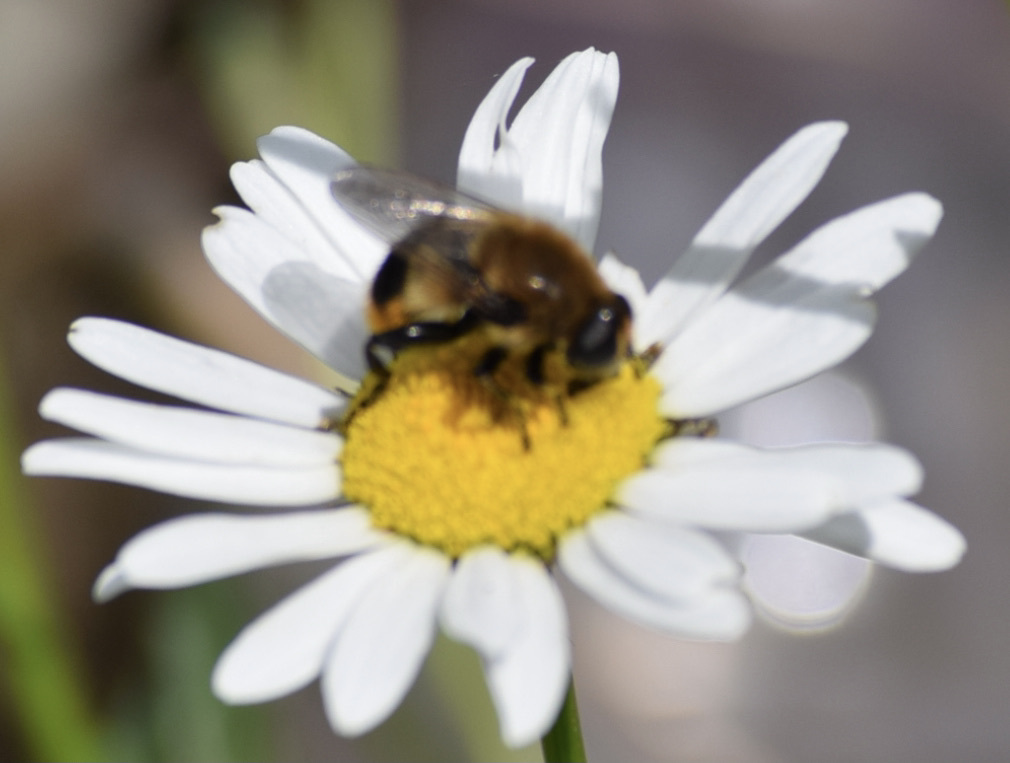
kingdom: Animalia
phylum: Arthropoda
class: Insecta
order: Diptera
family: Syrphidae
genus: Merodon
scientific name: Merodon equestris
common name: Greater bulb-fly
